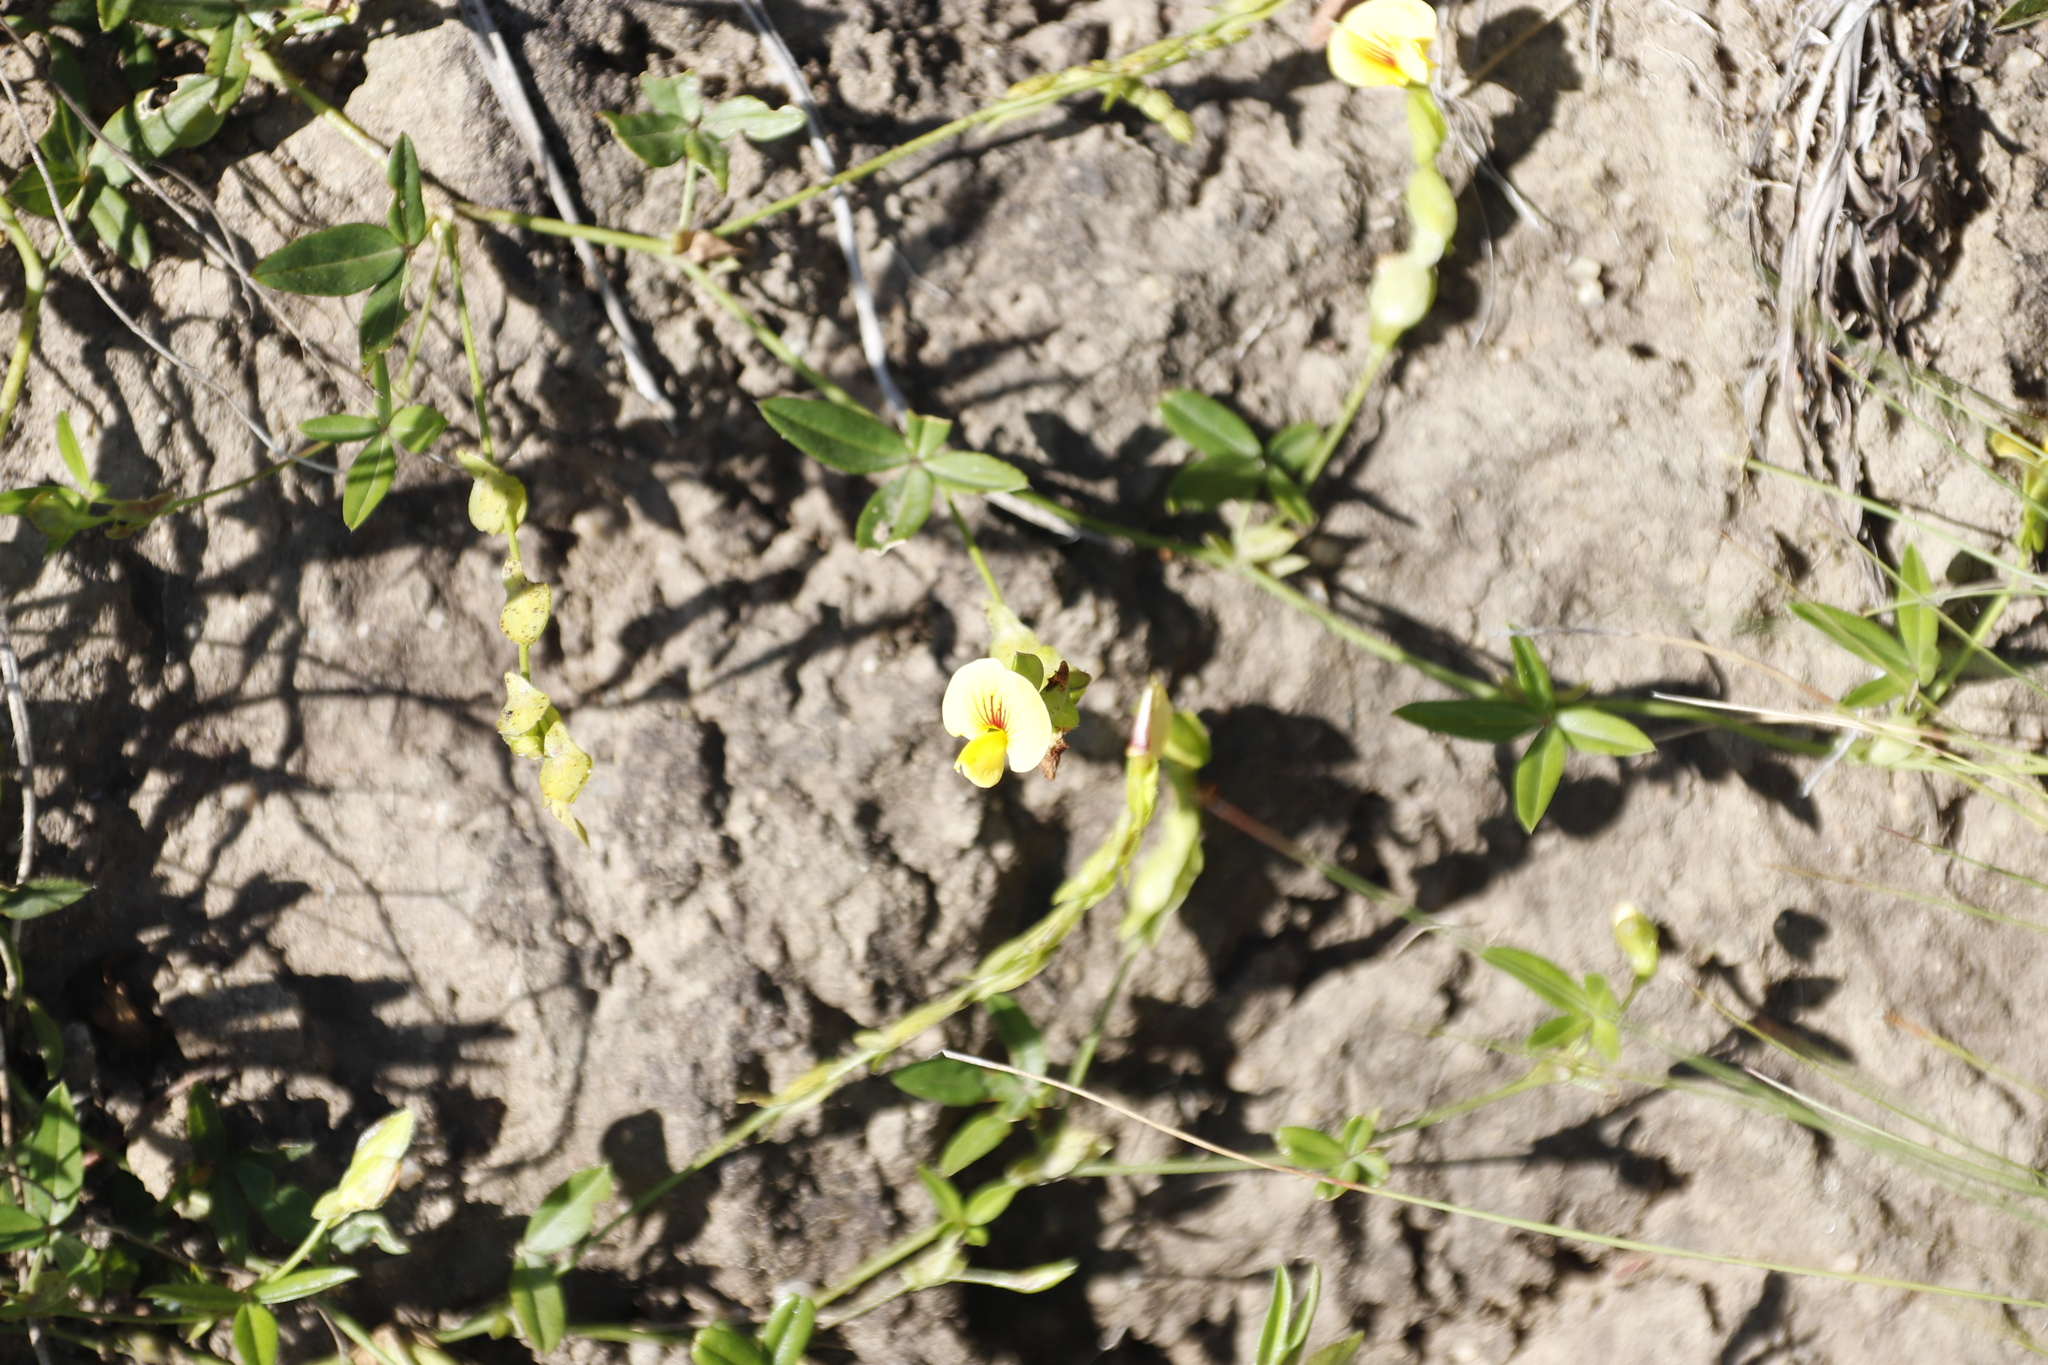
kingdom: Plantae
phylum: Tracheophyta
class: Magnoliopsida
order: Fabales
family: Fabaceae
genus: Zornia
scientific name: Zornia capensis
